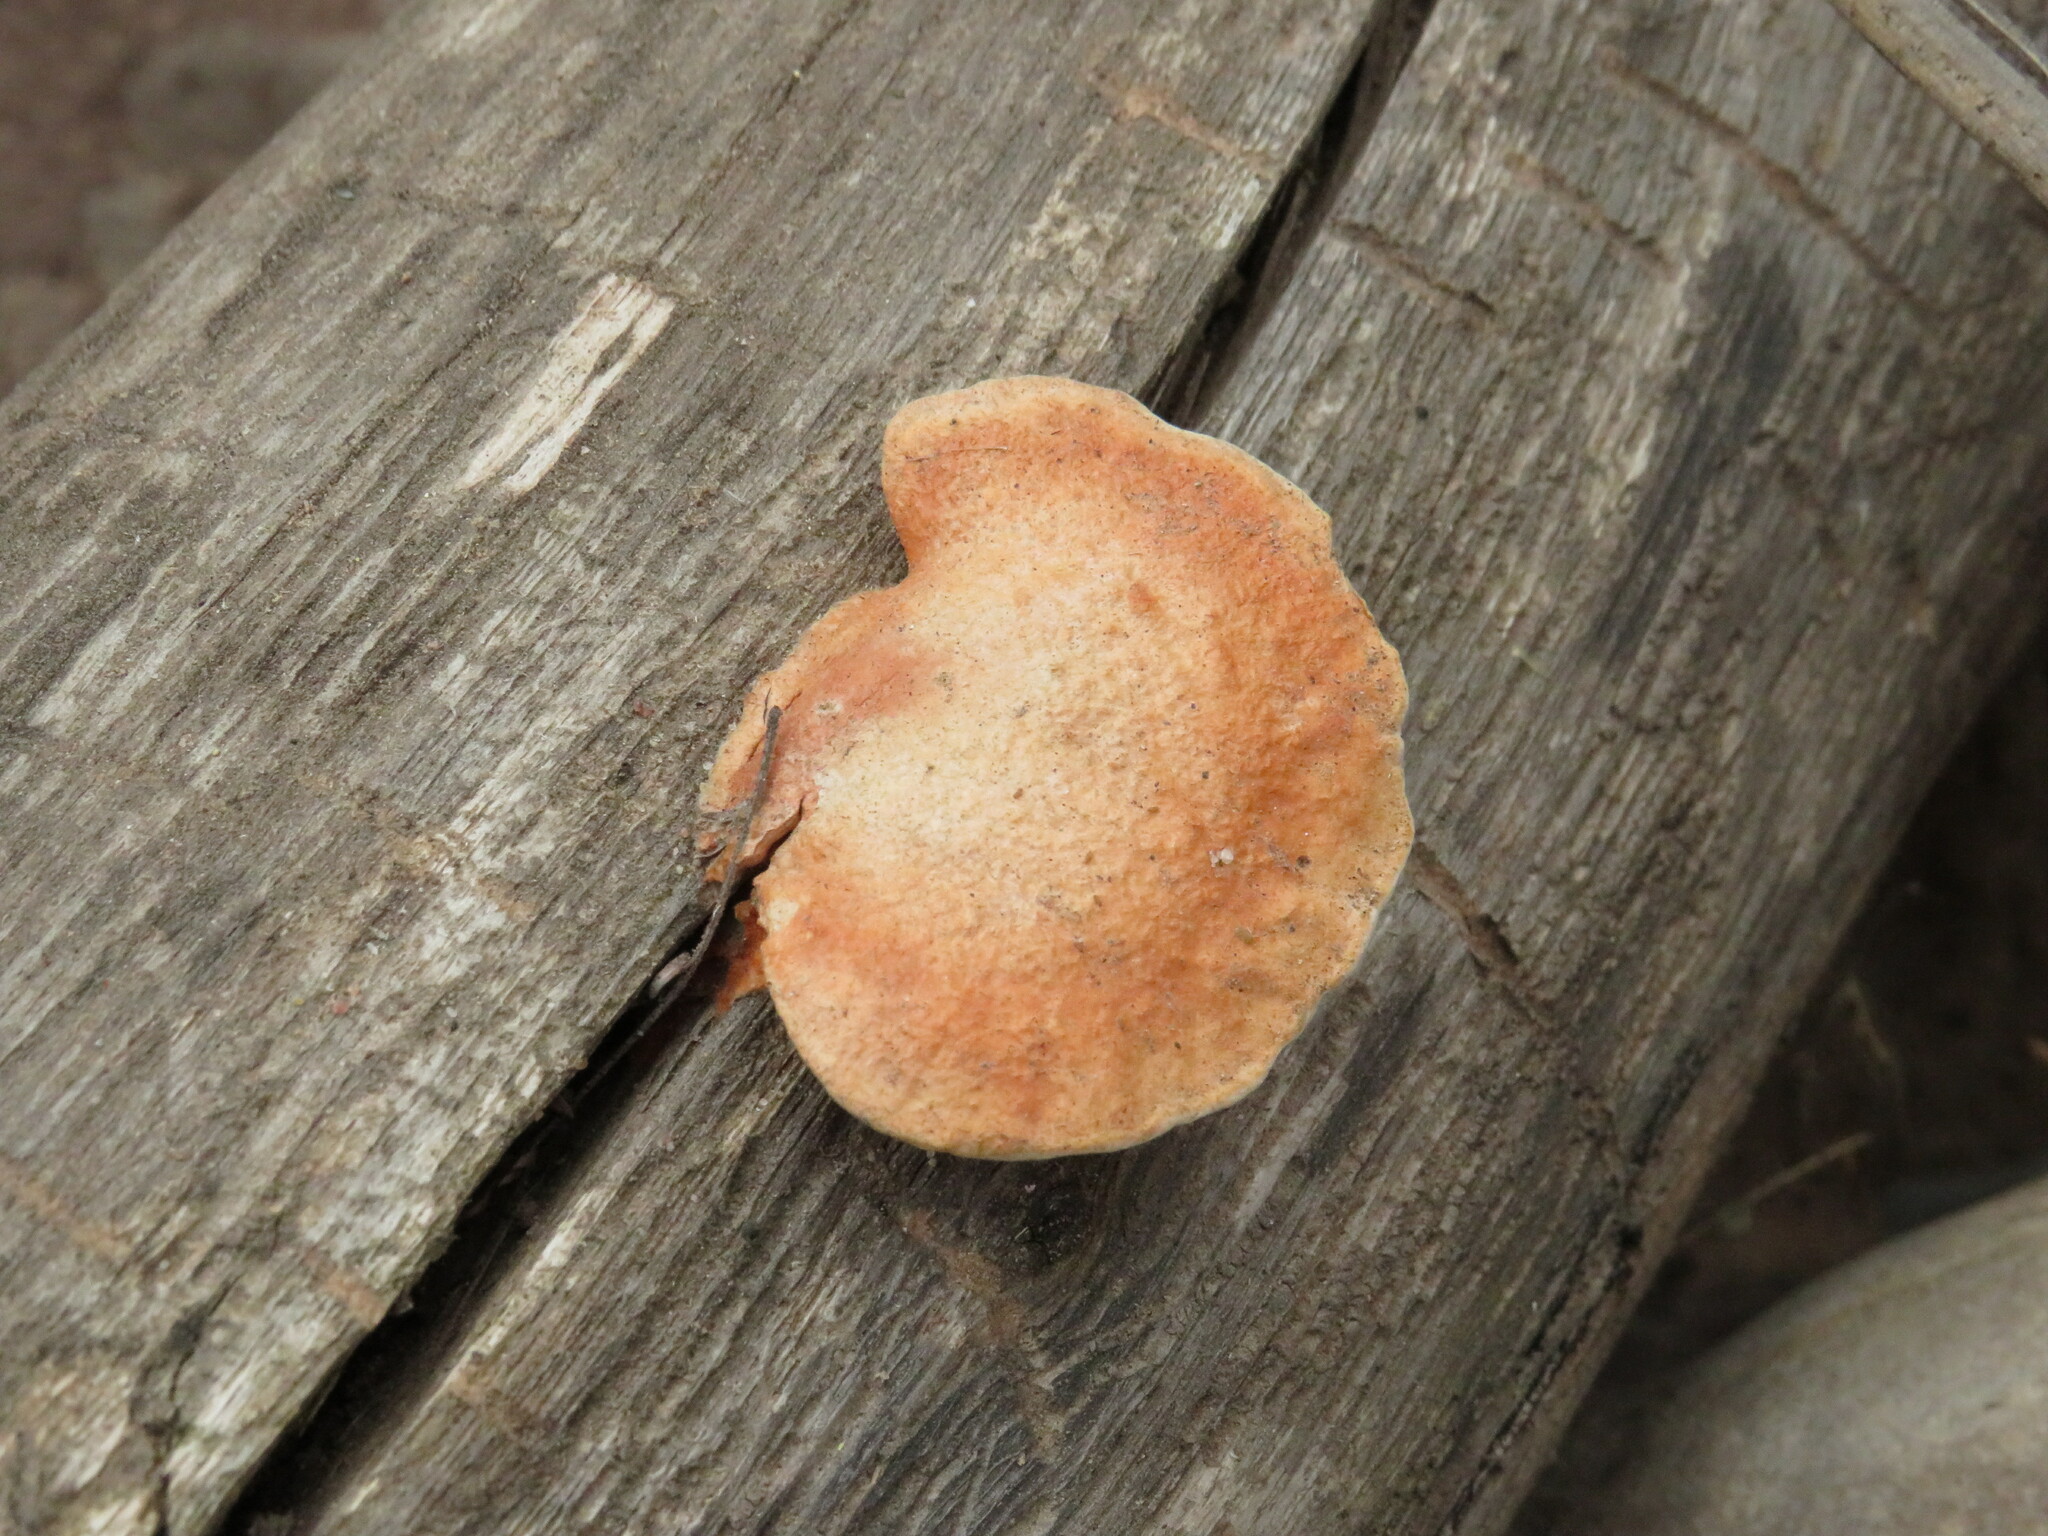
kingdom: Fungi
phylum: Basidiomycota
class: Agaricomycetes
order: Polyporales
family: Polyporaceae
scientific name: Polyporaceae
